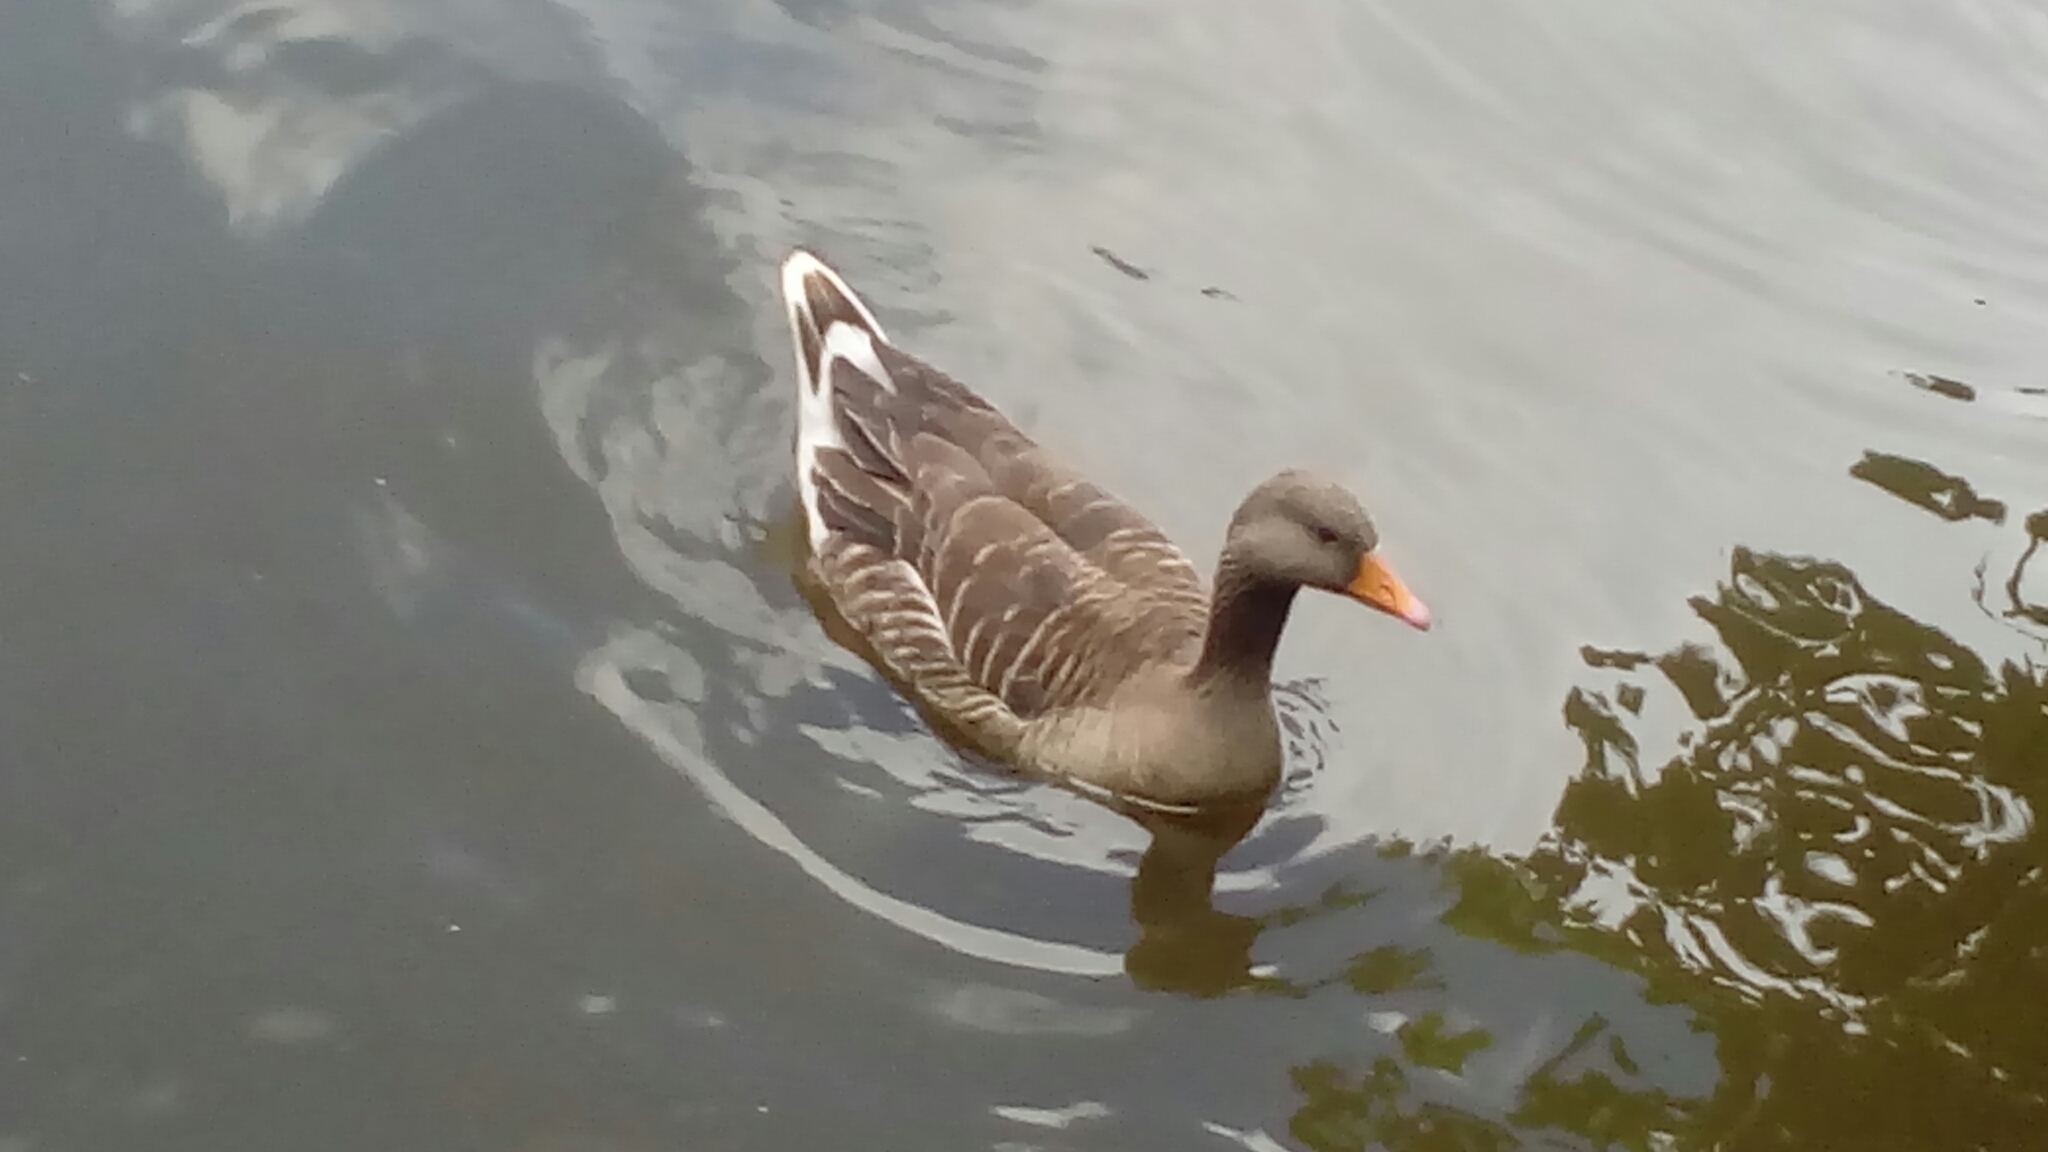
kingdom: Animalia
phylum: Chordata
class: Aves
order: Anseriformes
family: Anatidae
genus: Anser
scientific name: Anser anser
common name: Greylag goose
